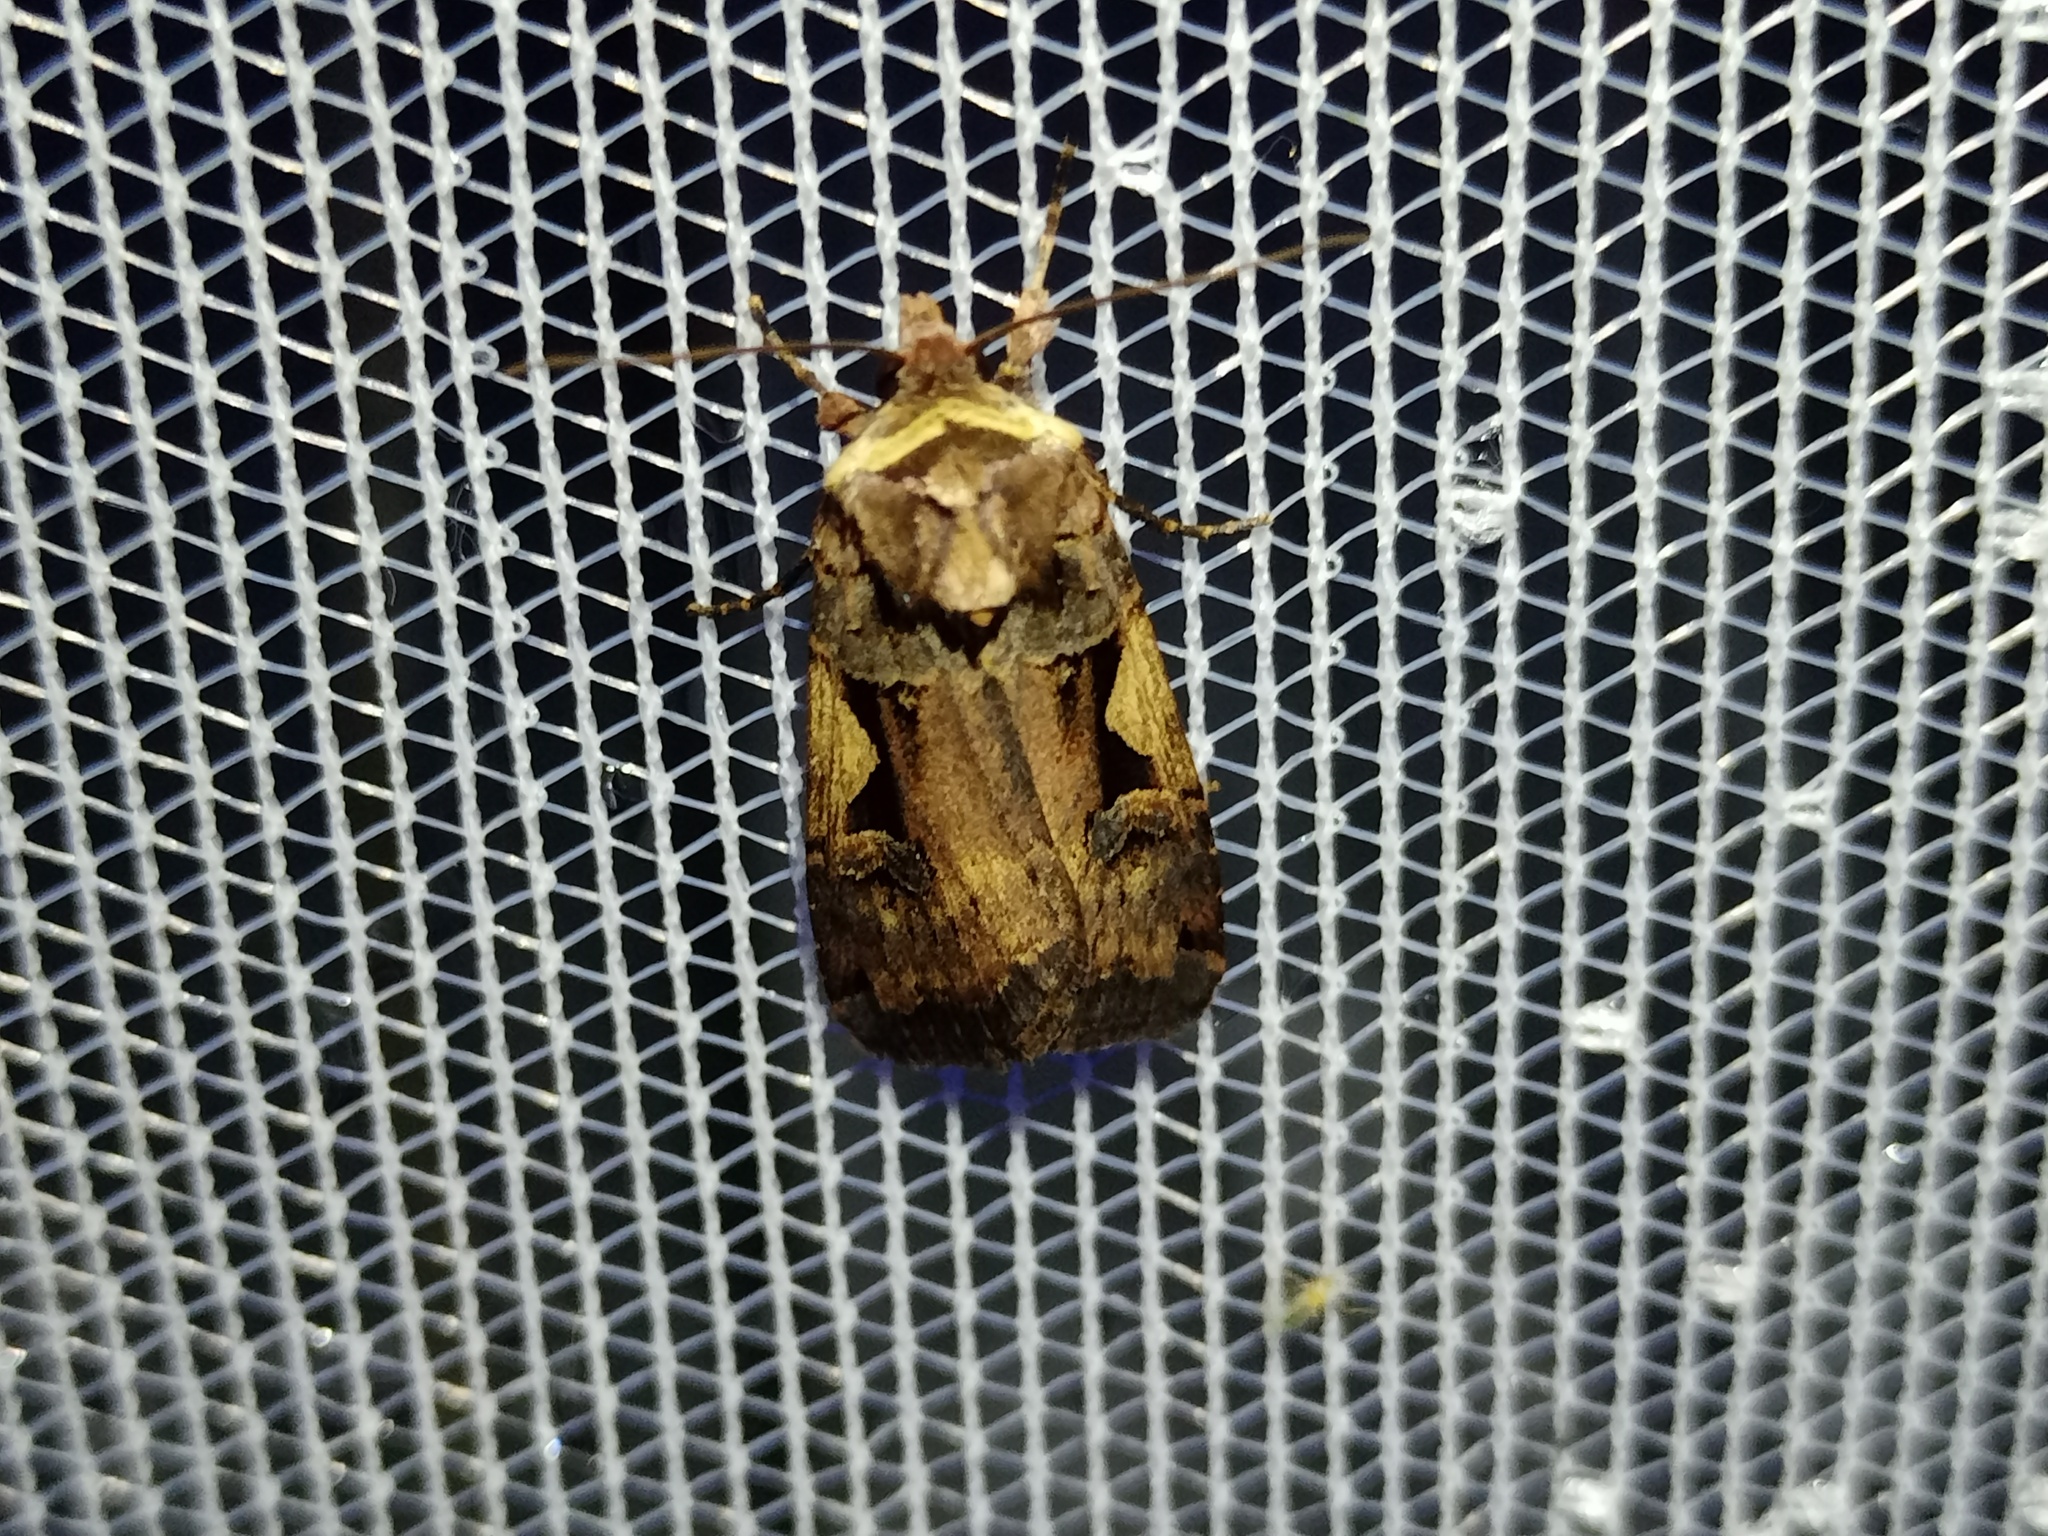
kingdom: Animalia
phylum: Arthropoda
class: Insecta
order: Lepidoptera
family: Noctuidae
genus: Xestia
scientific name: Xestia c-nigrum
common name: Setaceous hebrew character
